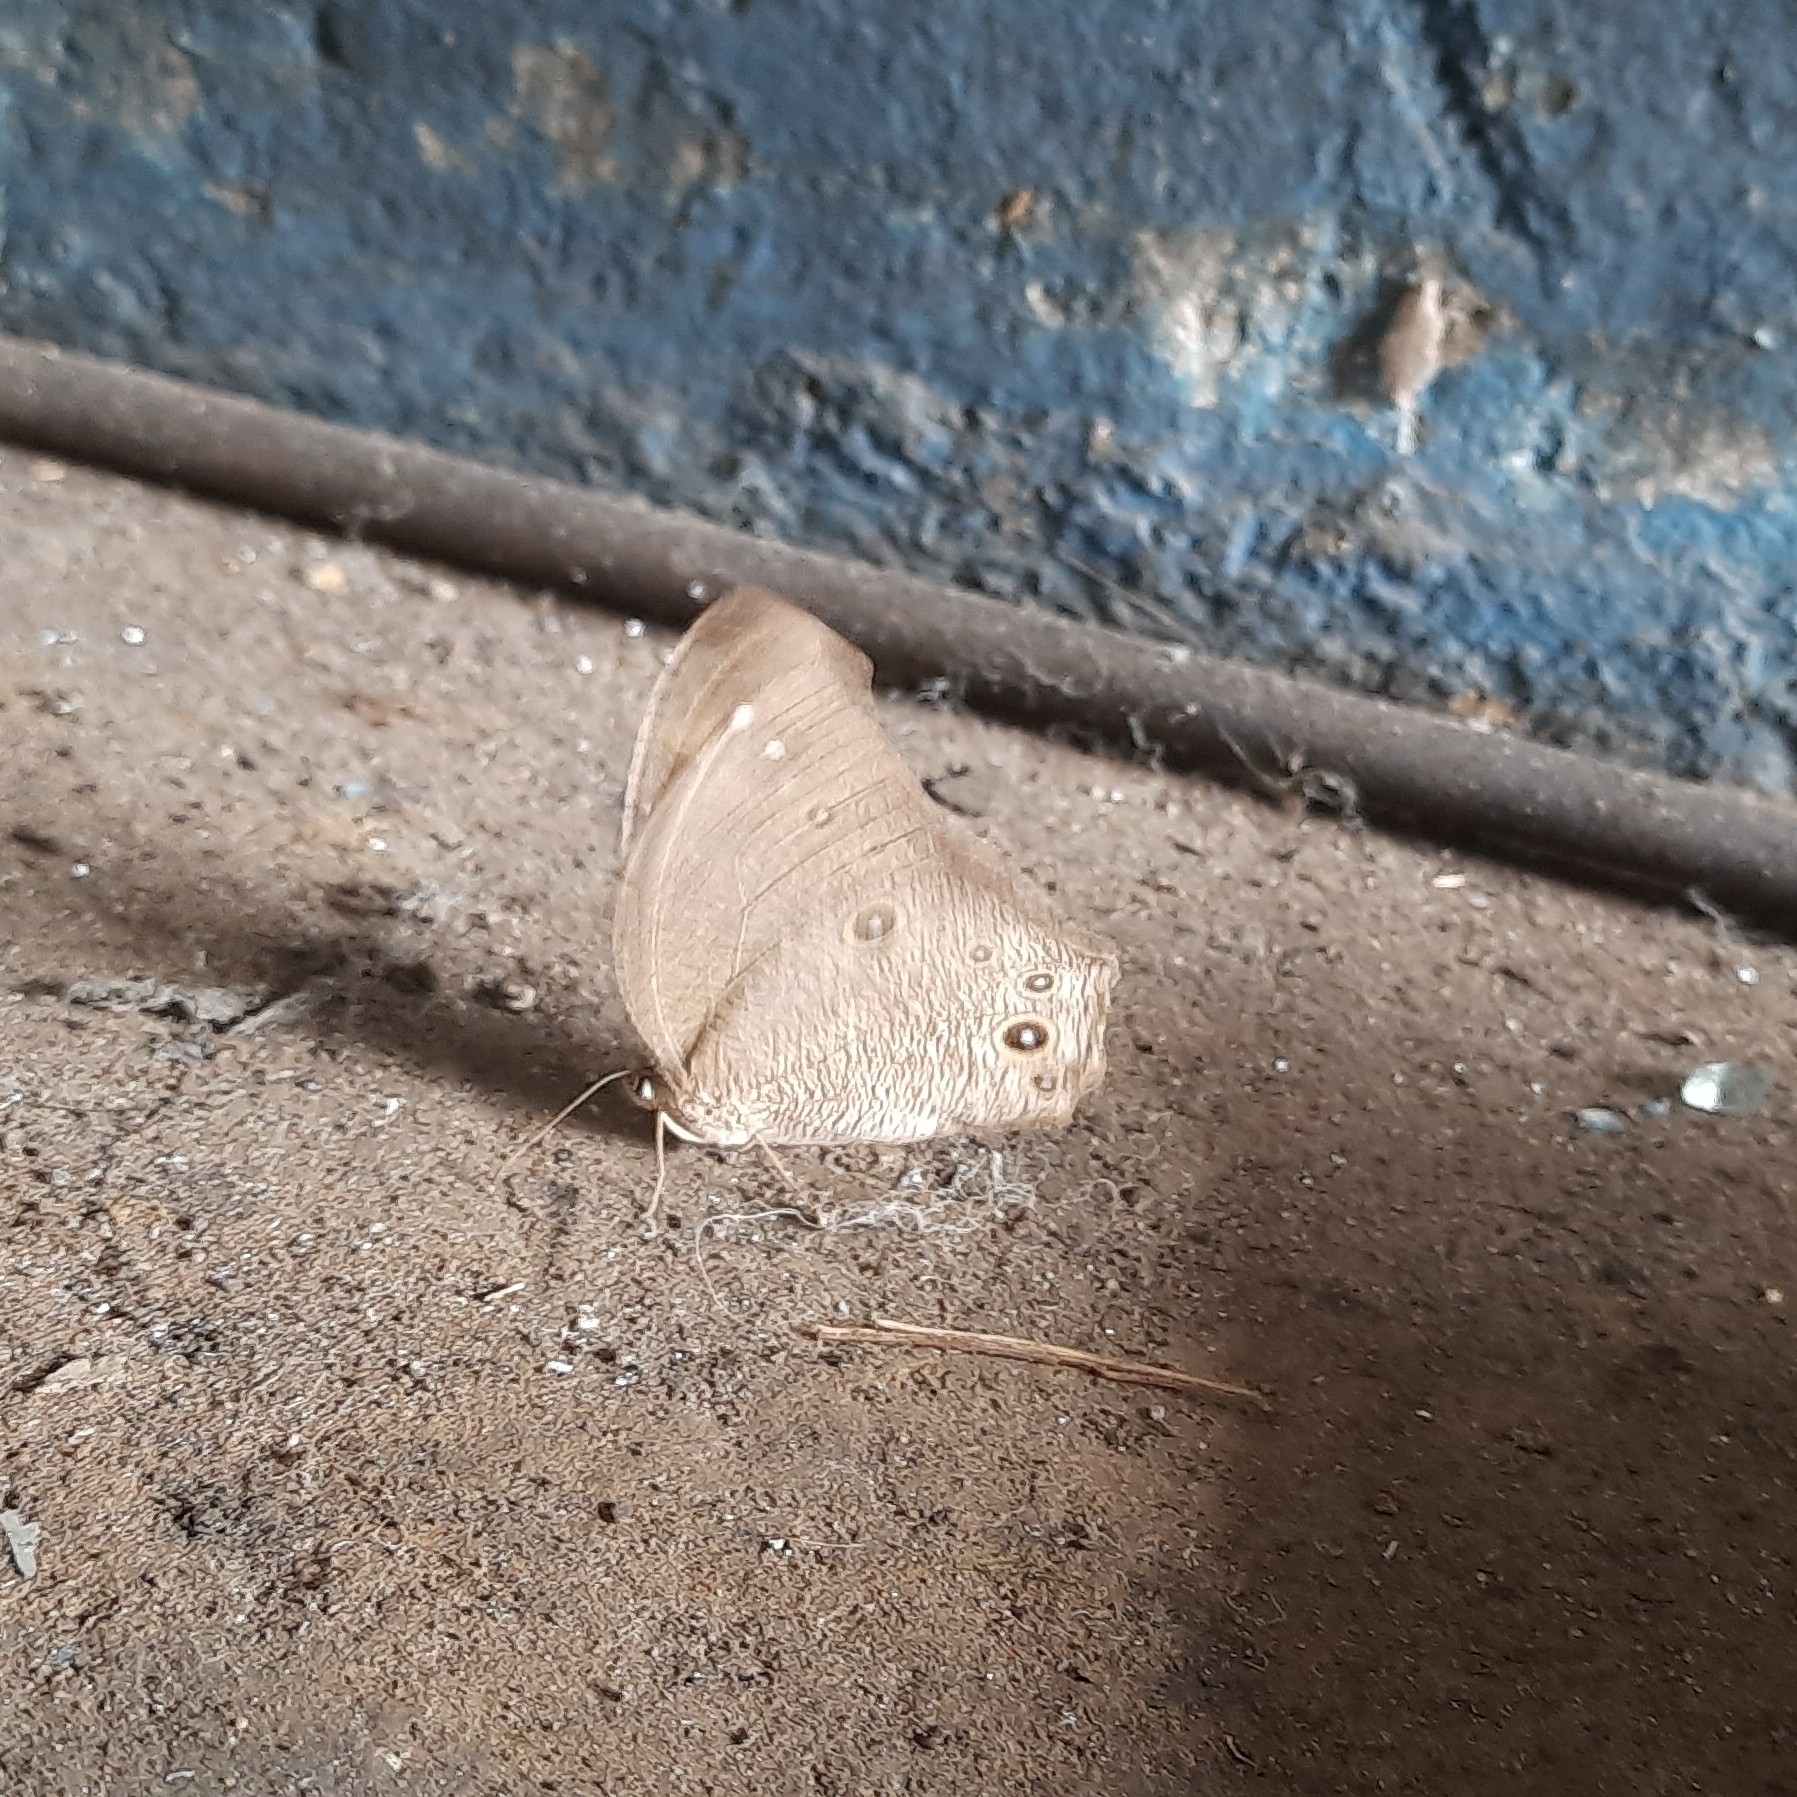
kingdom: Animalia
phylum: Arthropoda
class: Insecta
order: Lepidoptera
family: Nymphalidae
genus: Melanitis
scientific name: Melanitis leda
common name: Twilight brown
